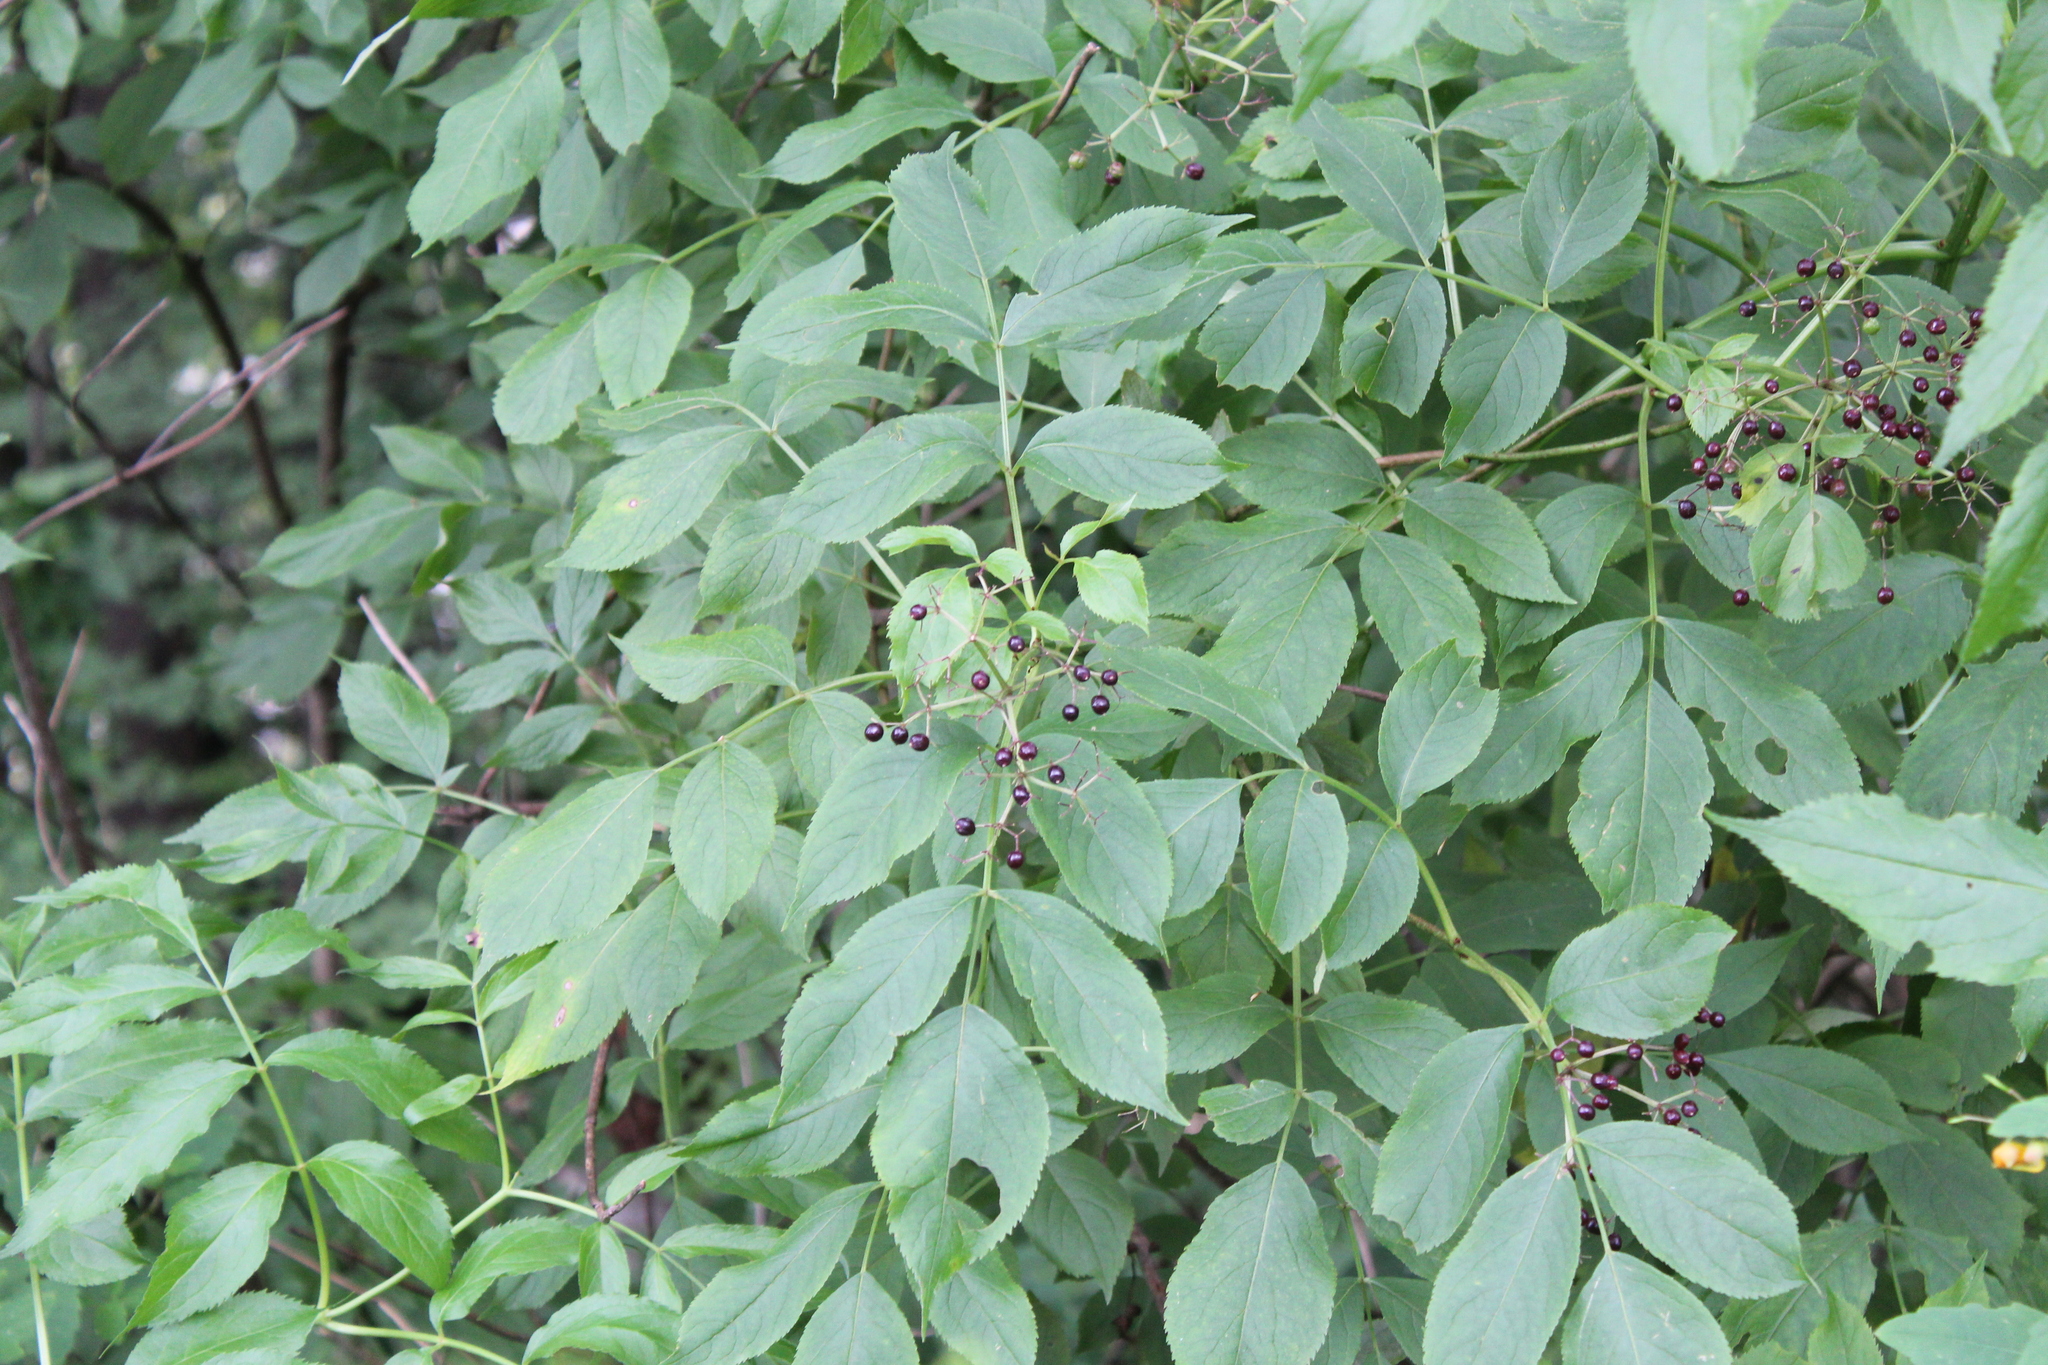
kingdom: Plantae
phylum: Tracheophyta
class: Magnoliopsida
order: Dipsacales
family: Viburnaceae
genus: Sambucus
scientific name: Sambucus canadensis
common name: American elder
